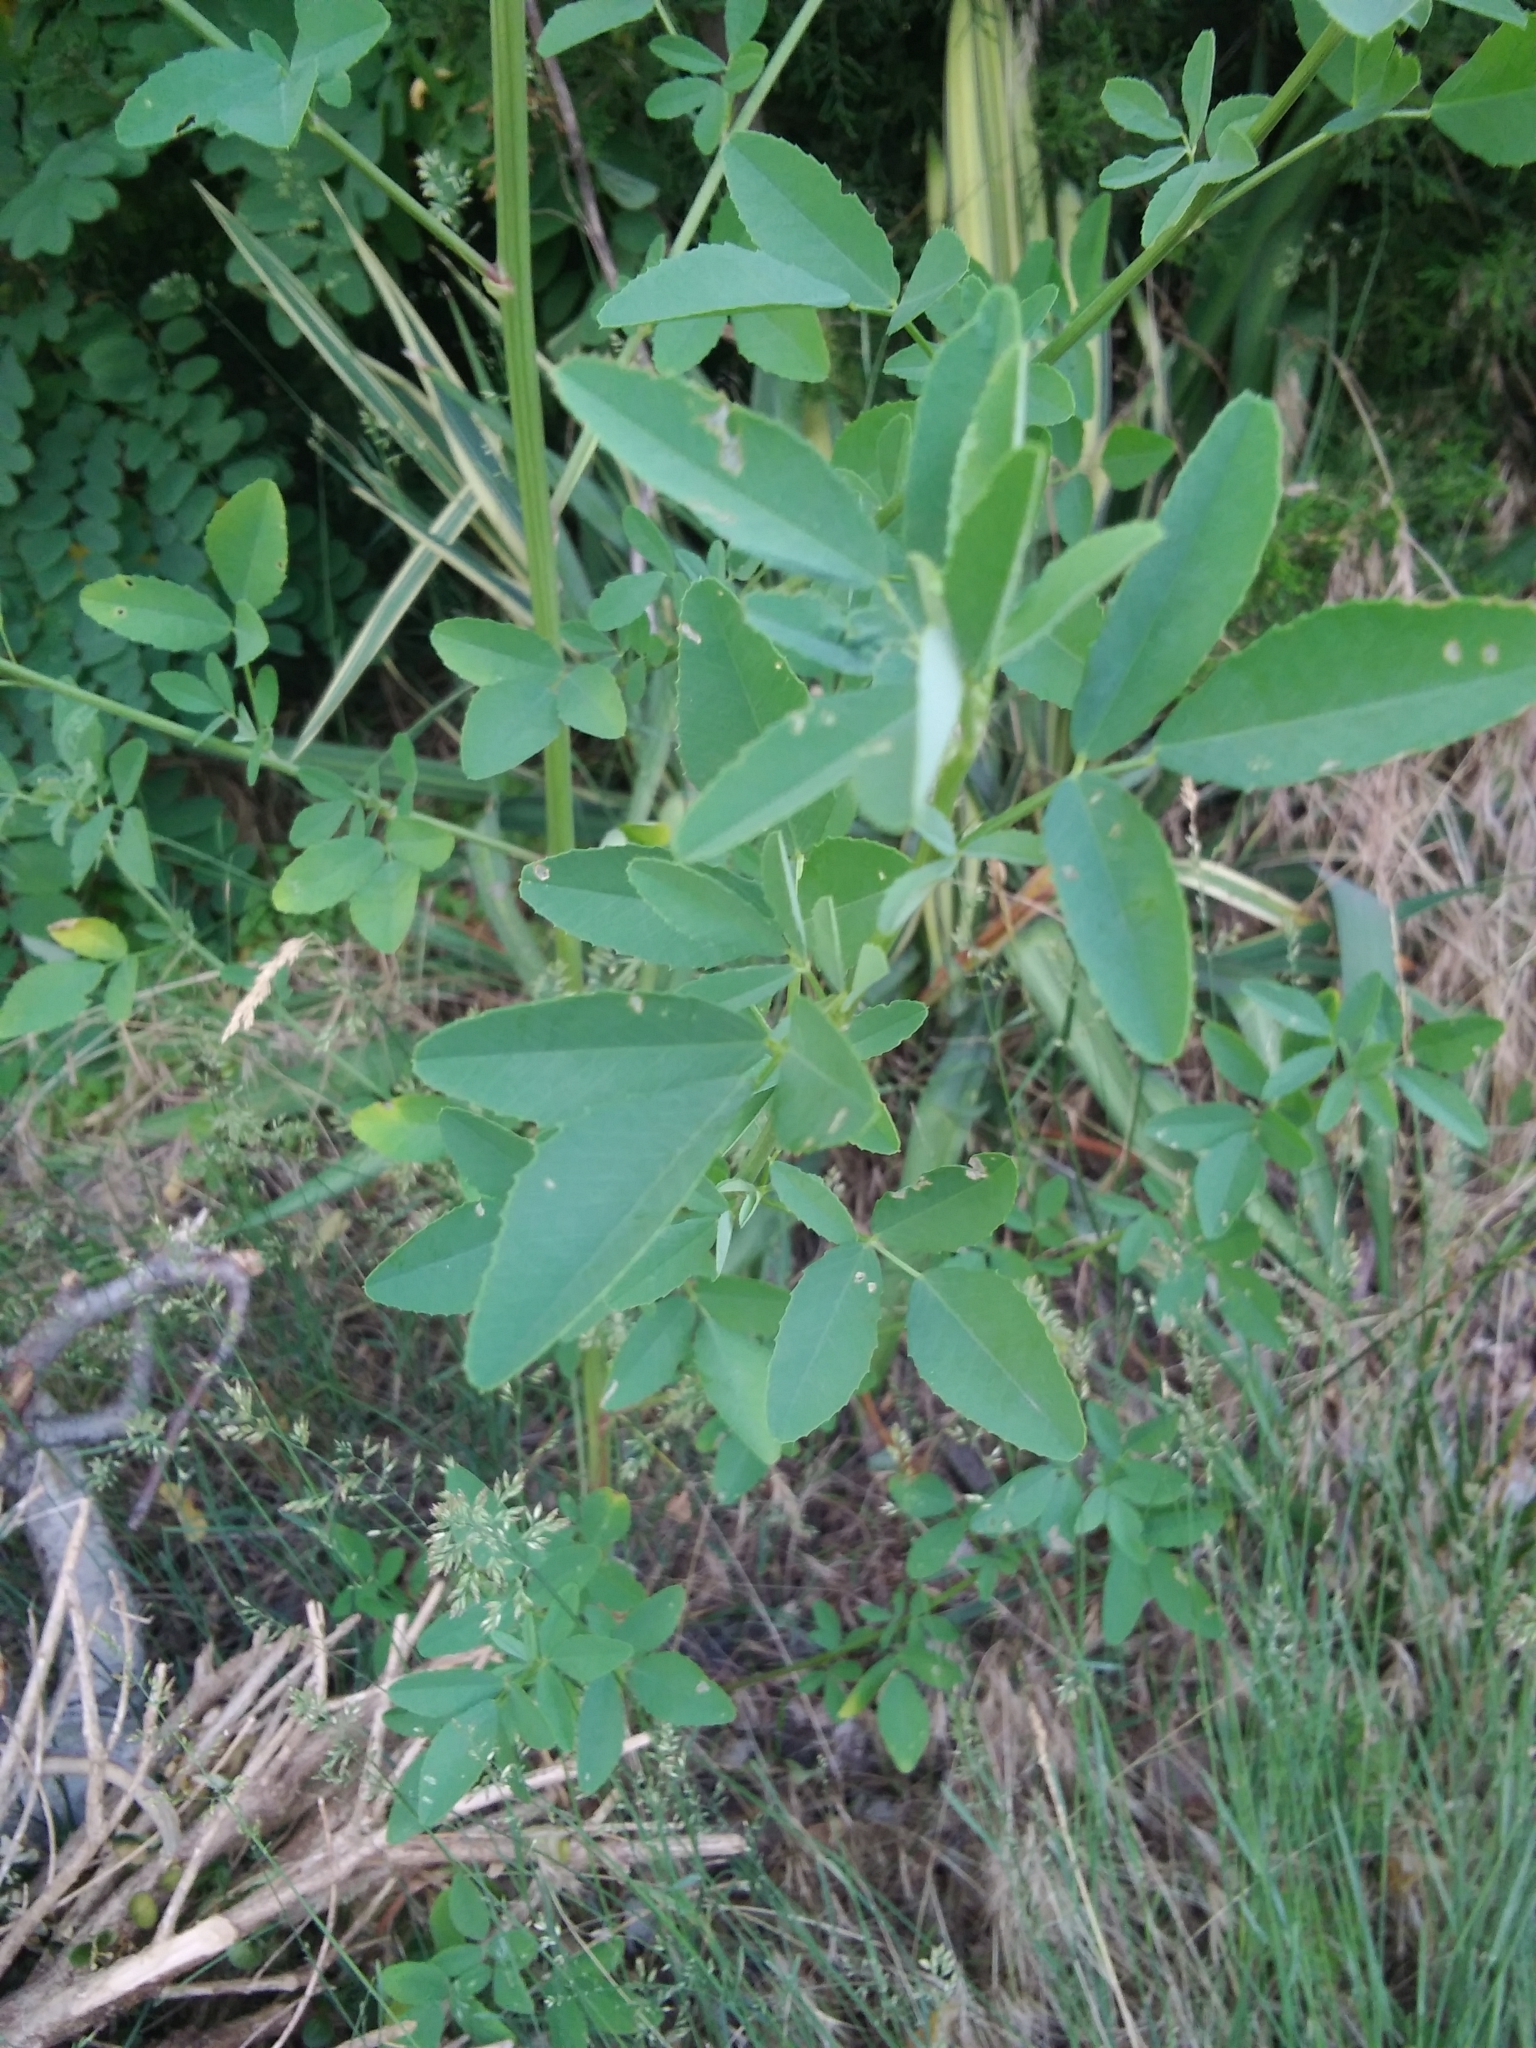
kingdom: Plantae
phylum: Tracheophyta
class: Magnoliopsida
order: Fabales
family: Fabaceae
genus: Melilotus
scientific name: Melilotus
